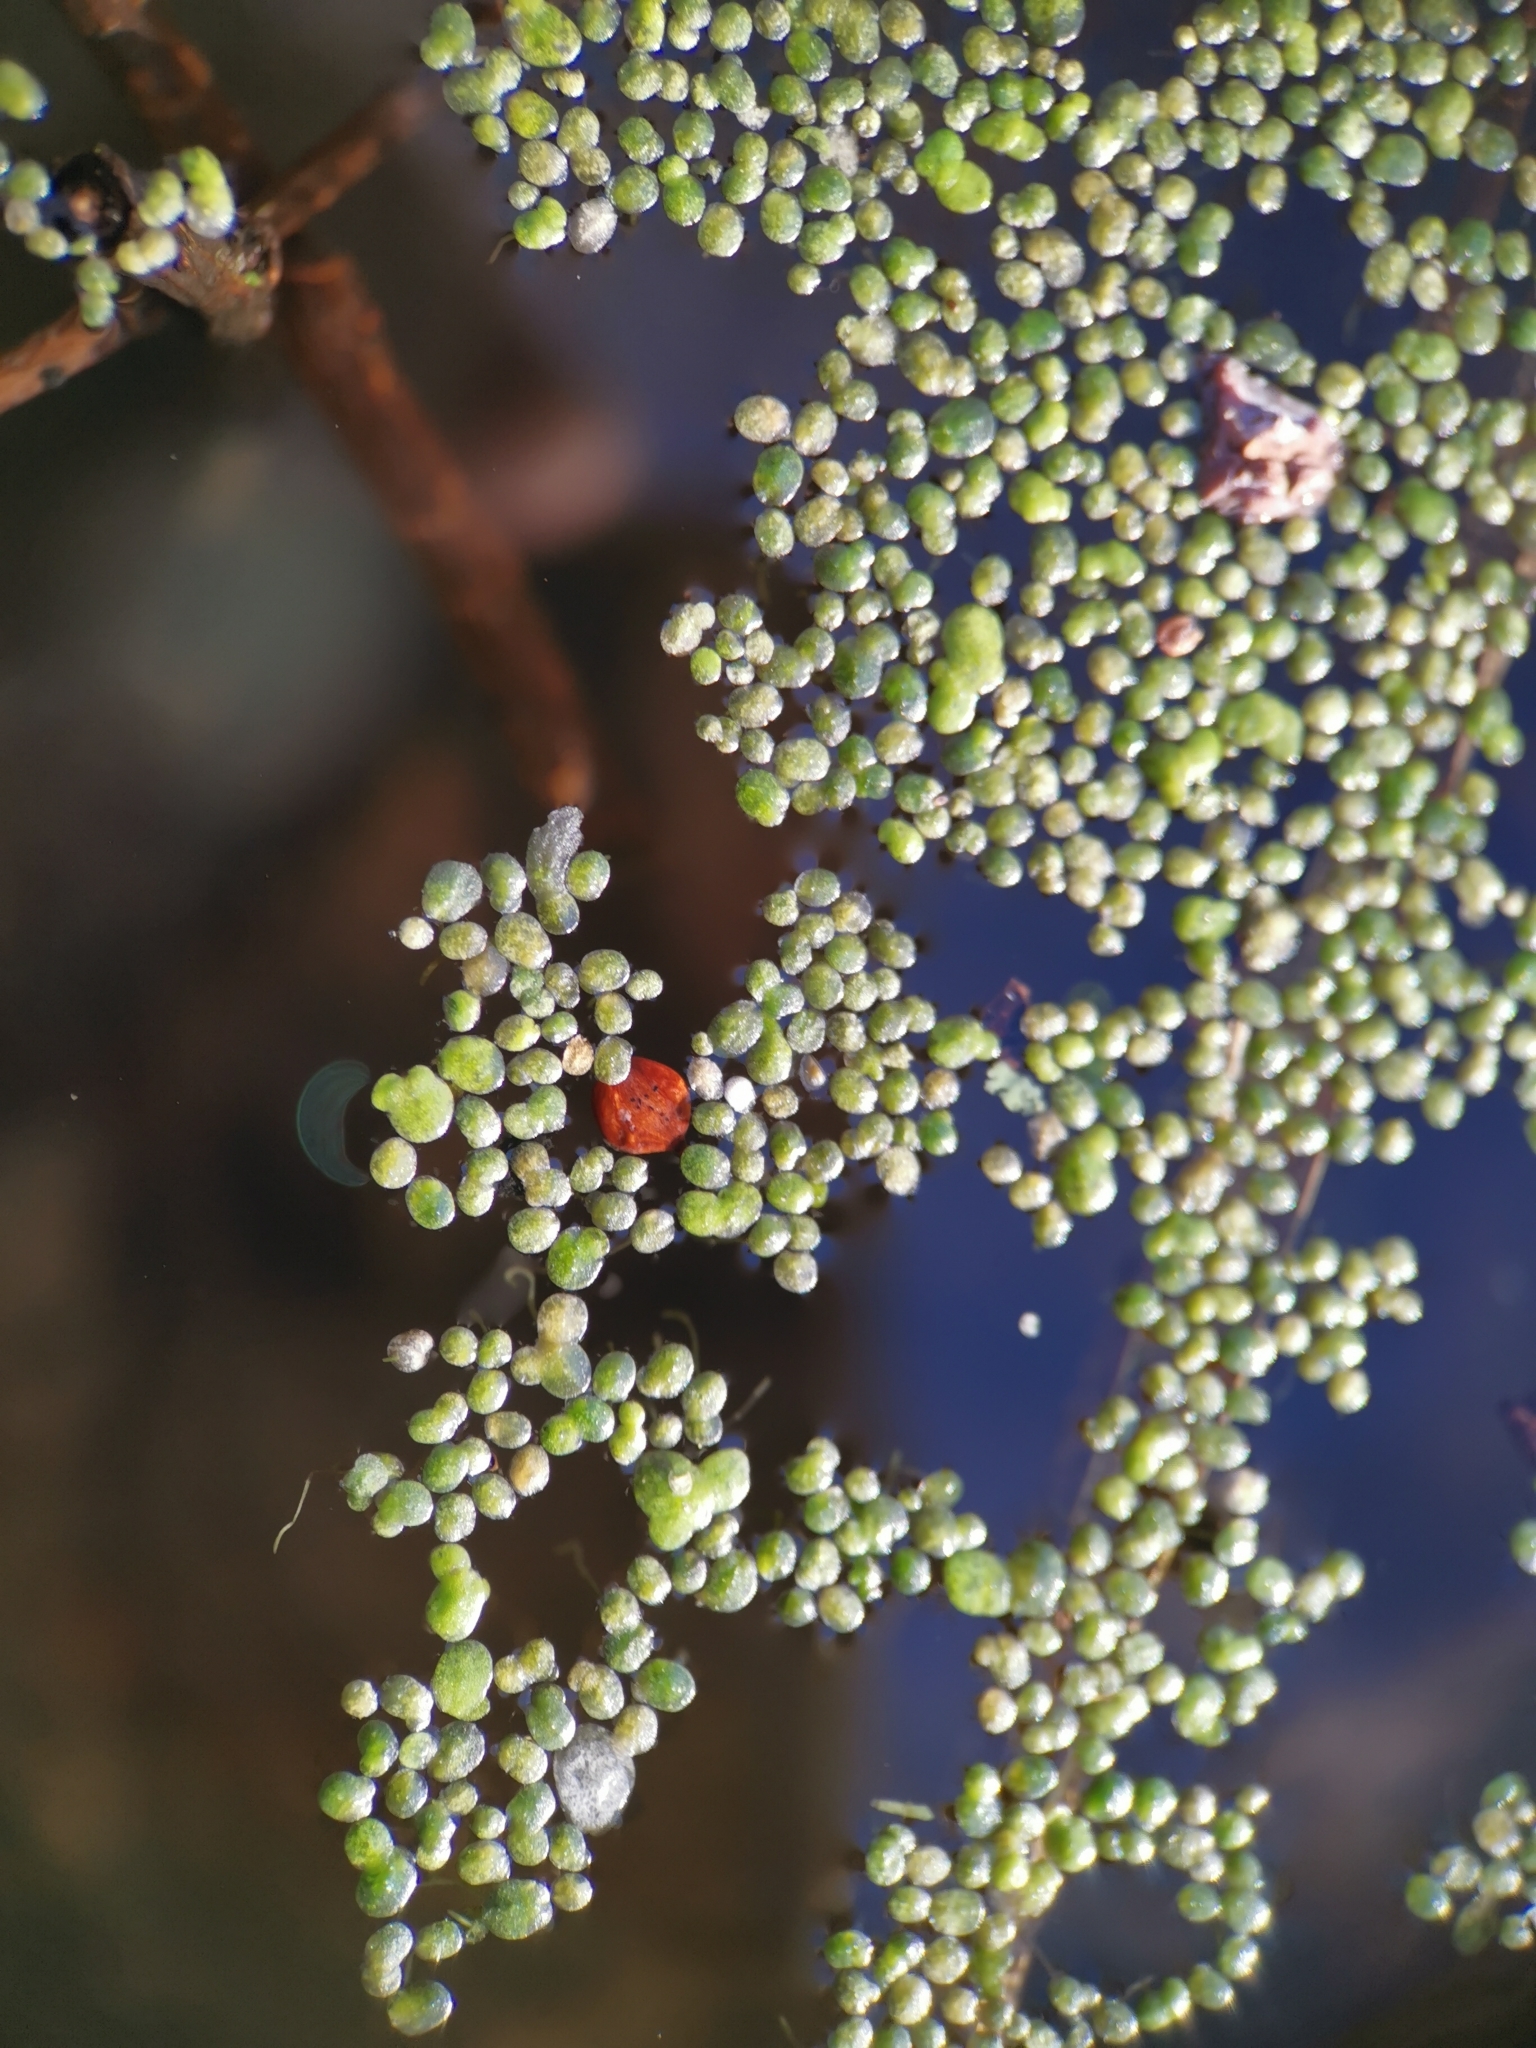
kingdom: Plantae
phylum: Tracheophyta
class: Liliopsida
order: Alismatales
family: Araceae
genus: Lemna
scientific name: Lemna minor
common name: Common duckweed
